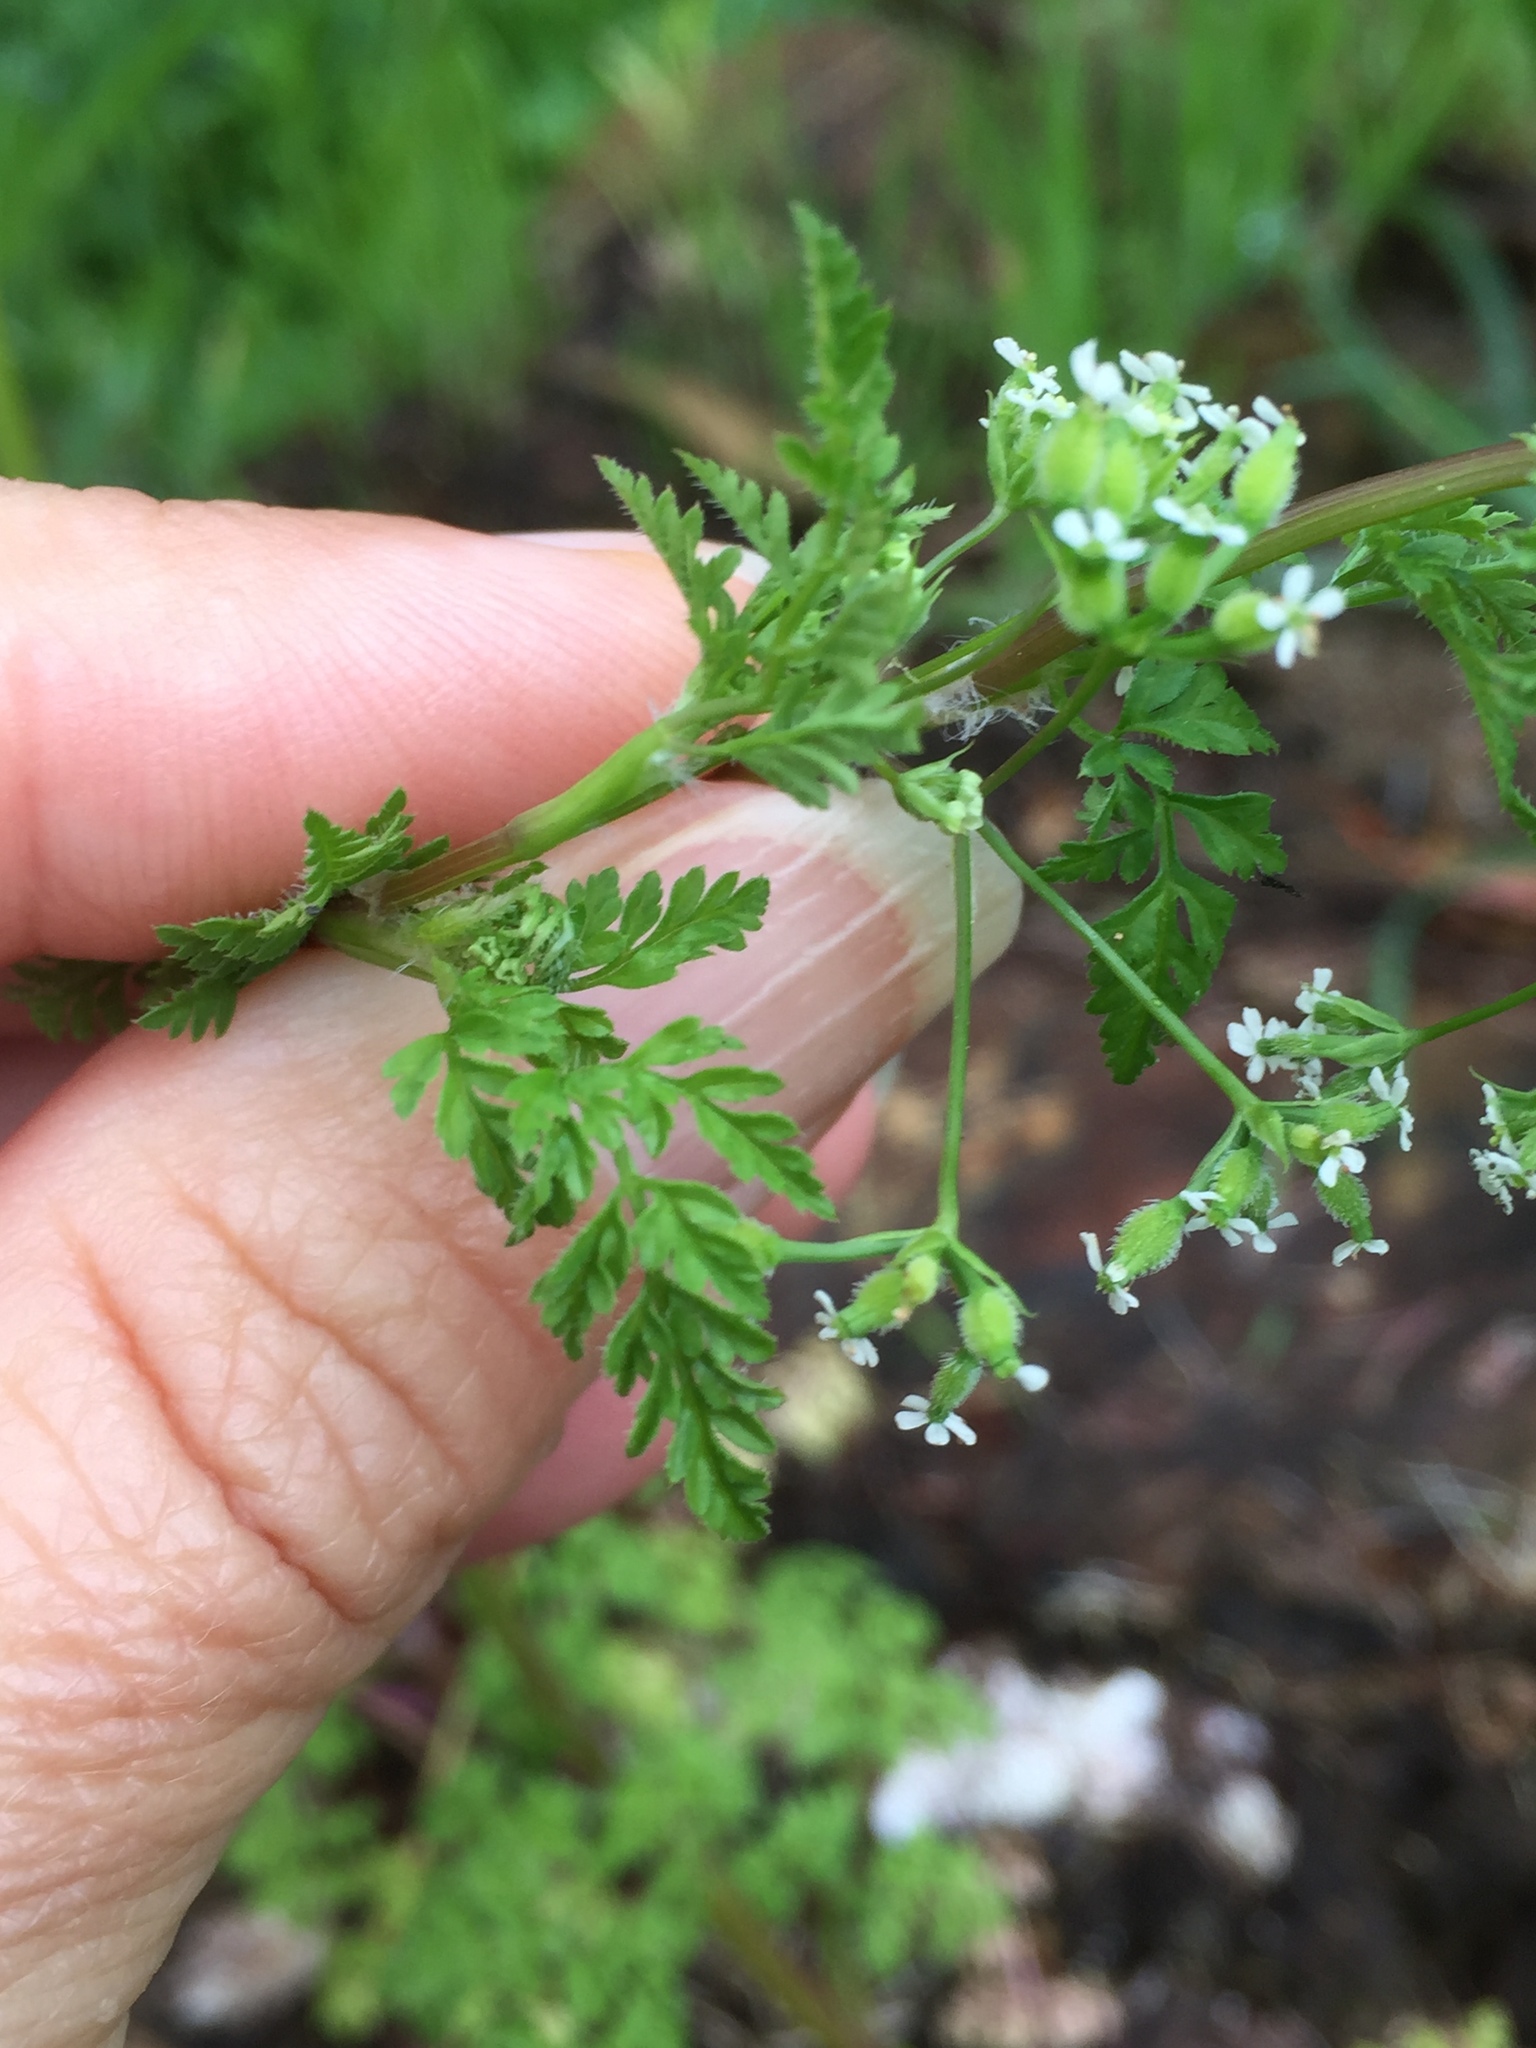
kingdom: Plantae
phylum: Tracheophyta
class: Magnoliopsida
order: Apiales
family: Apiaceae
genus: Anthriscus
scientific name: Anthriscus caucalis
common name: Bur chervil
